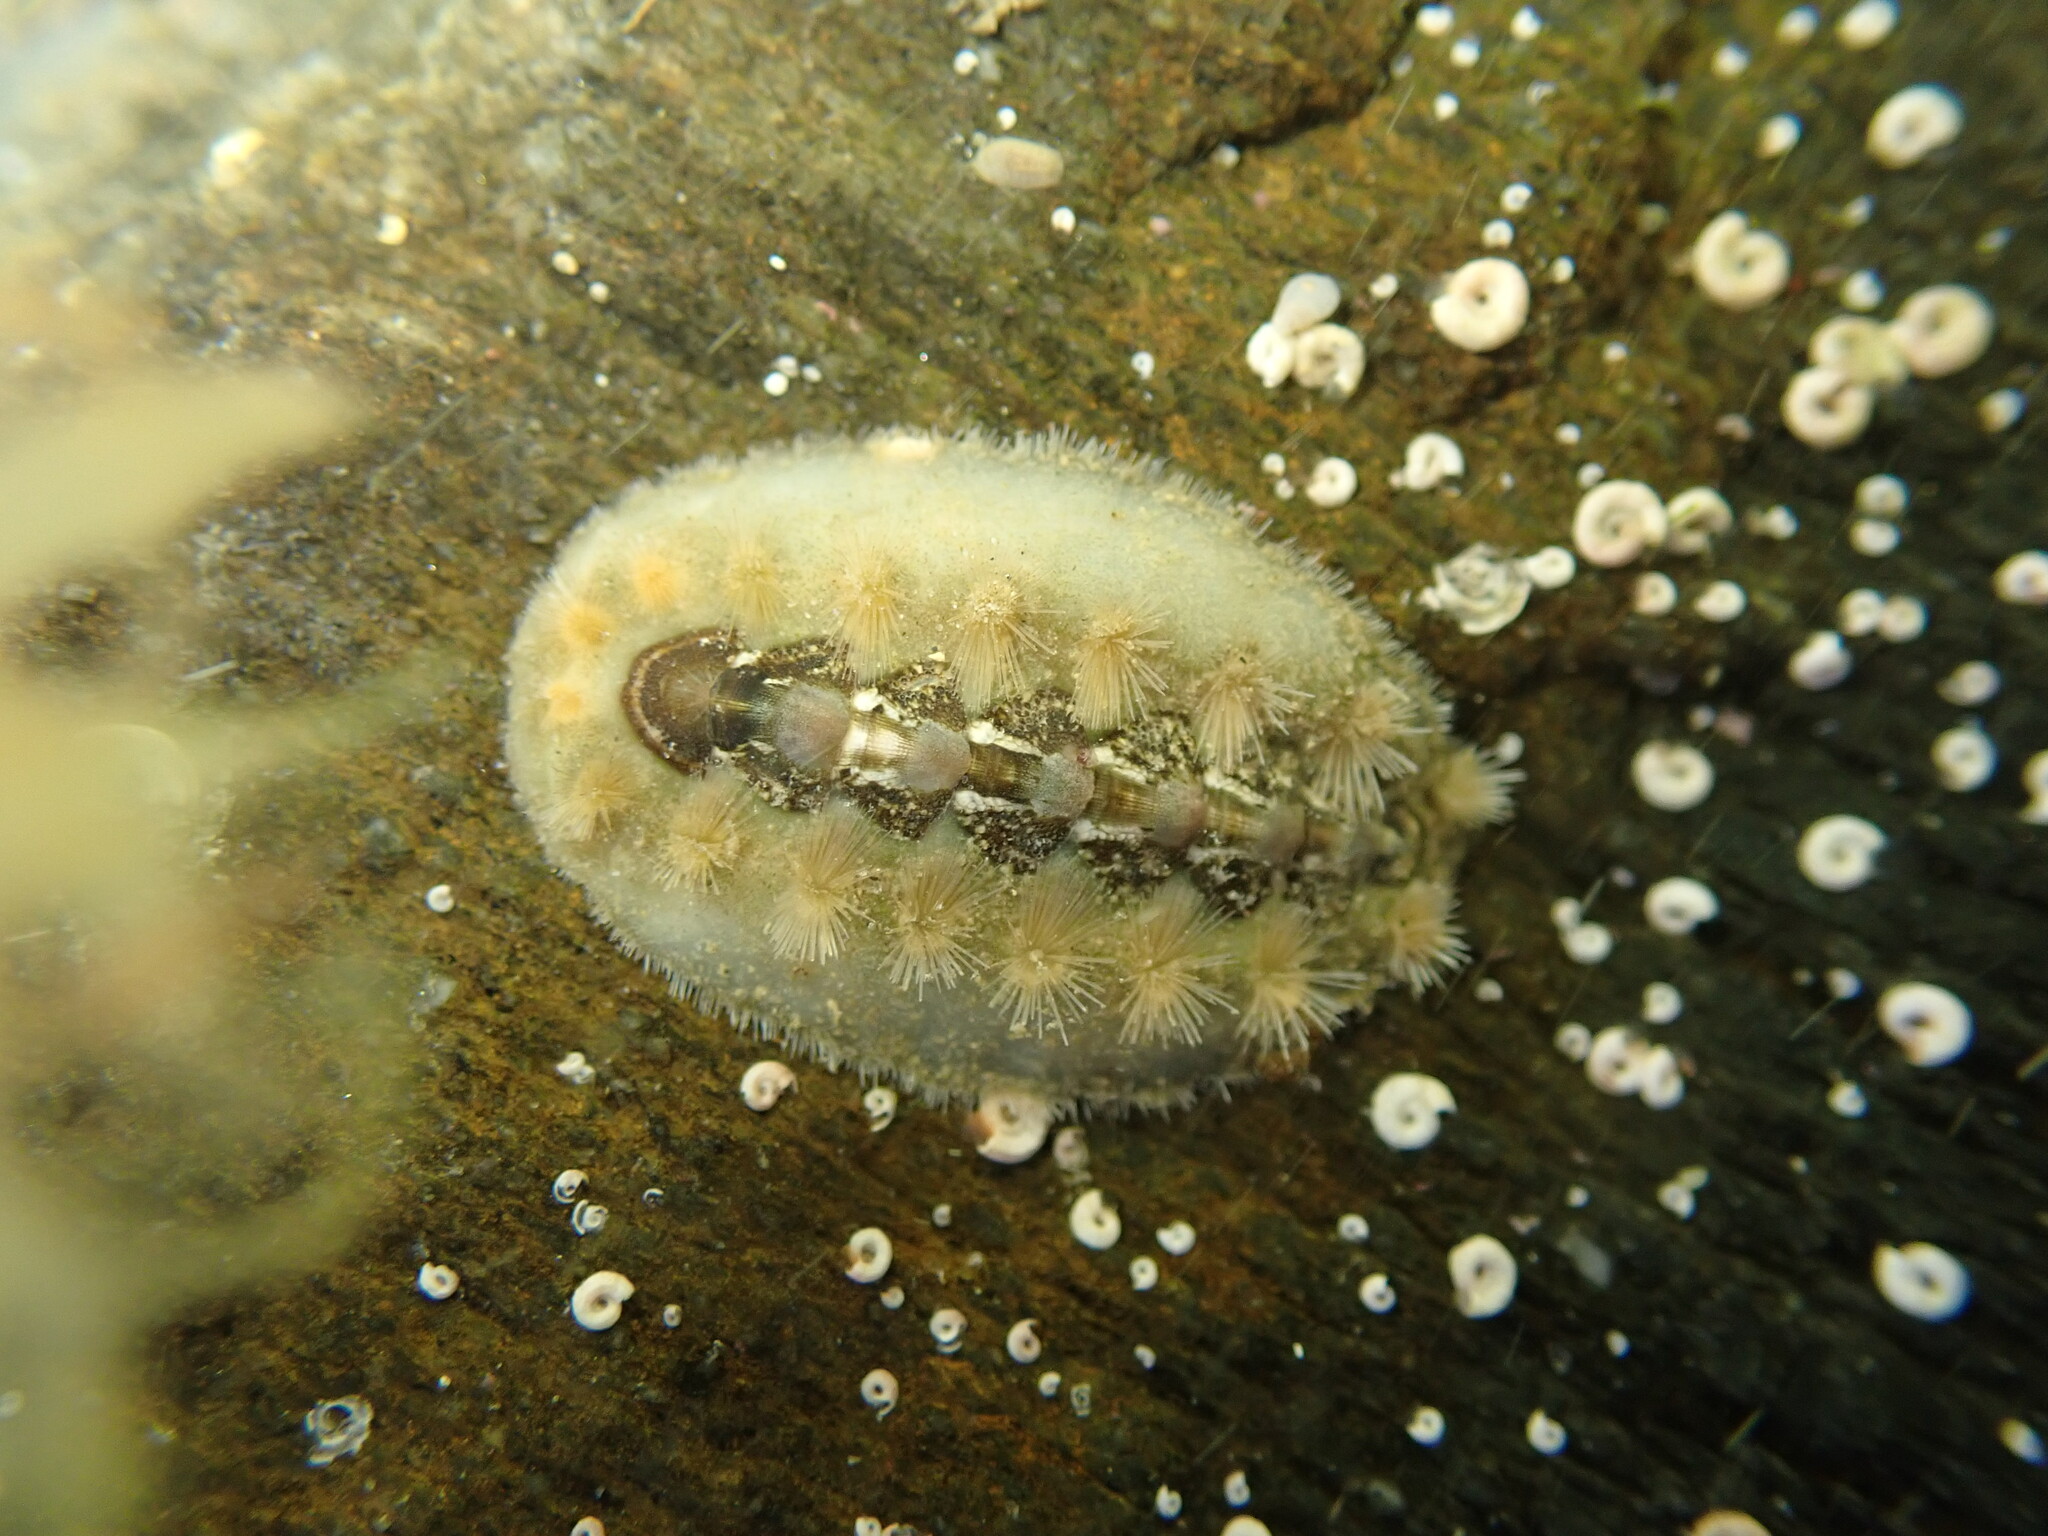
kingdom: Animalia
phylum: Mollusca
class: Polyplacophora
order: Chitonida
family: Acanthochitonidae
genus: Acanthochitona
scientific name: Acanthochitona zelandica
